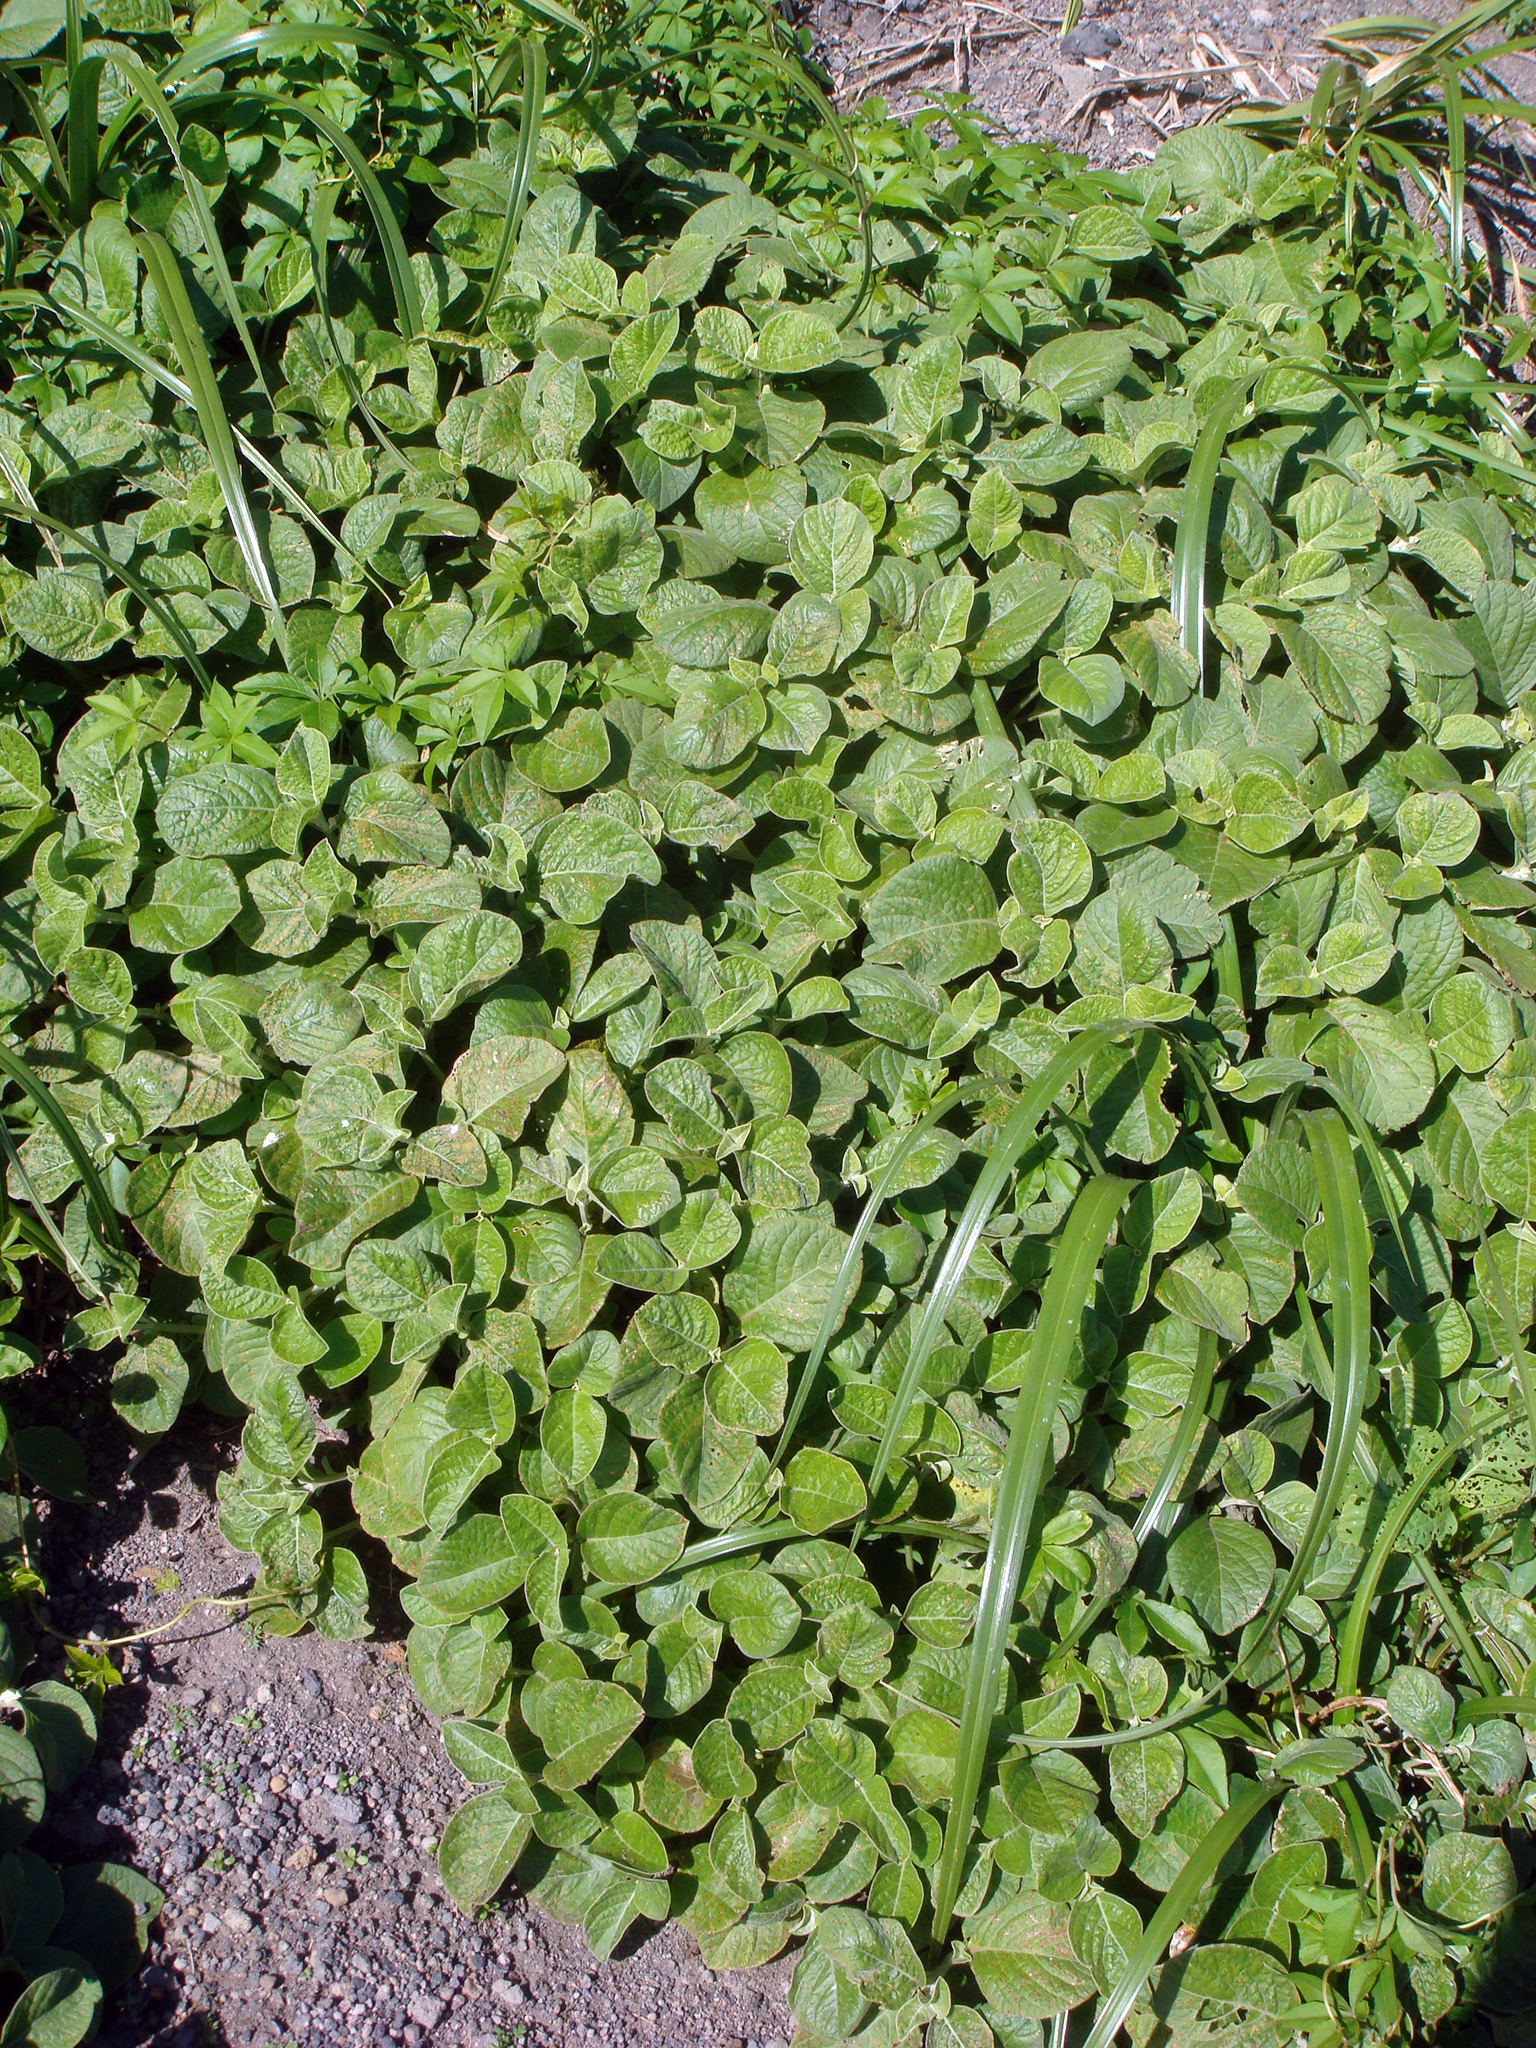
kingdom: Plantae
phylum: Tracheophyta
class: Magnoliopsida
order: Caryophyllales
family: Amaranthaceae
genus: Achyranthes
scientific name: Achyranthes velutina
